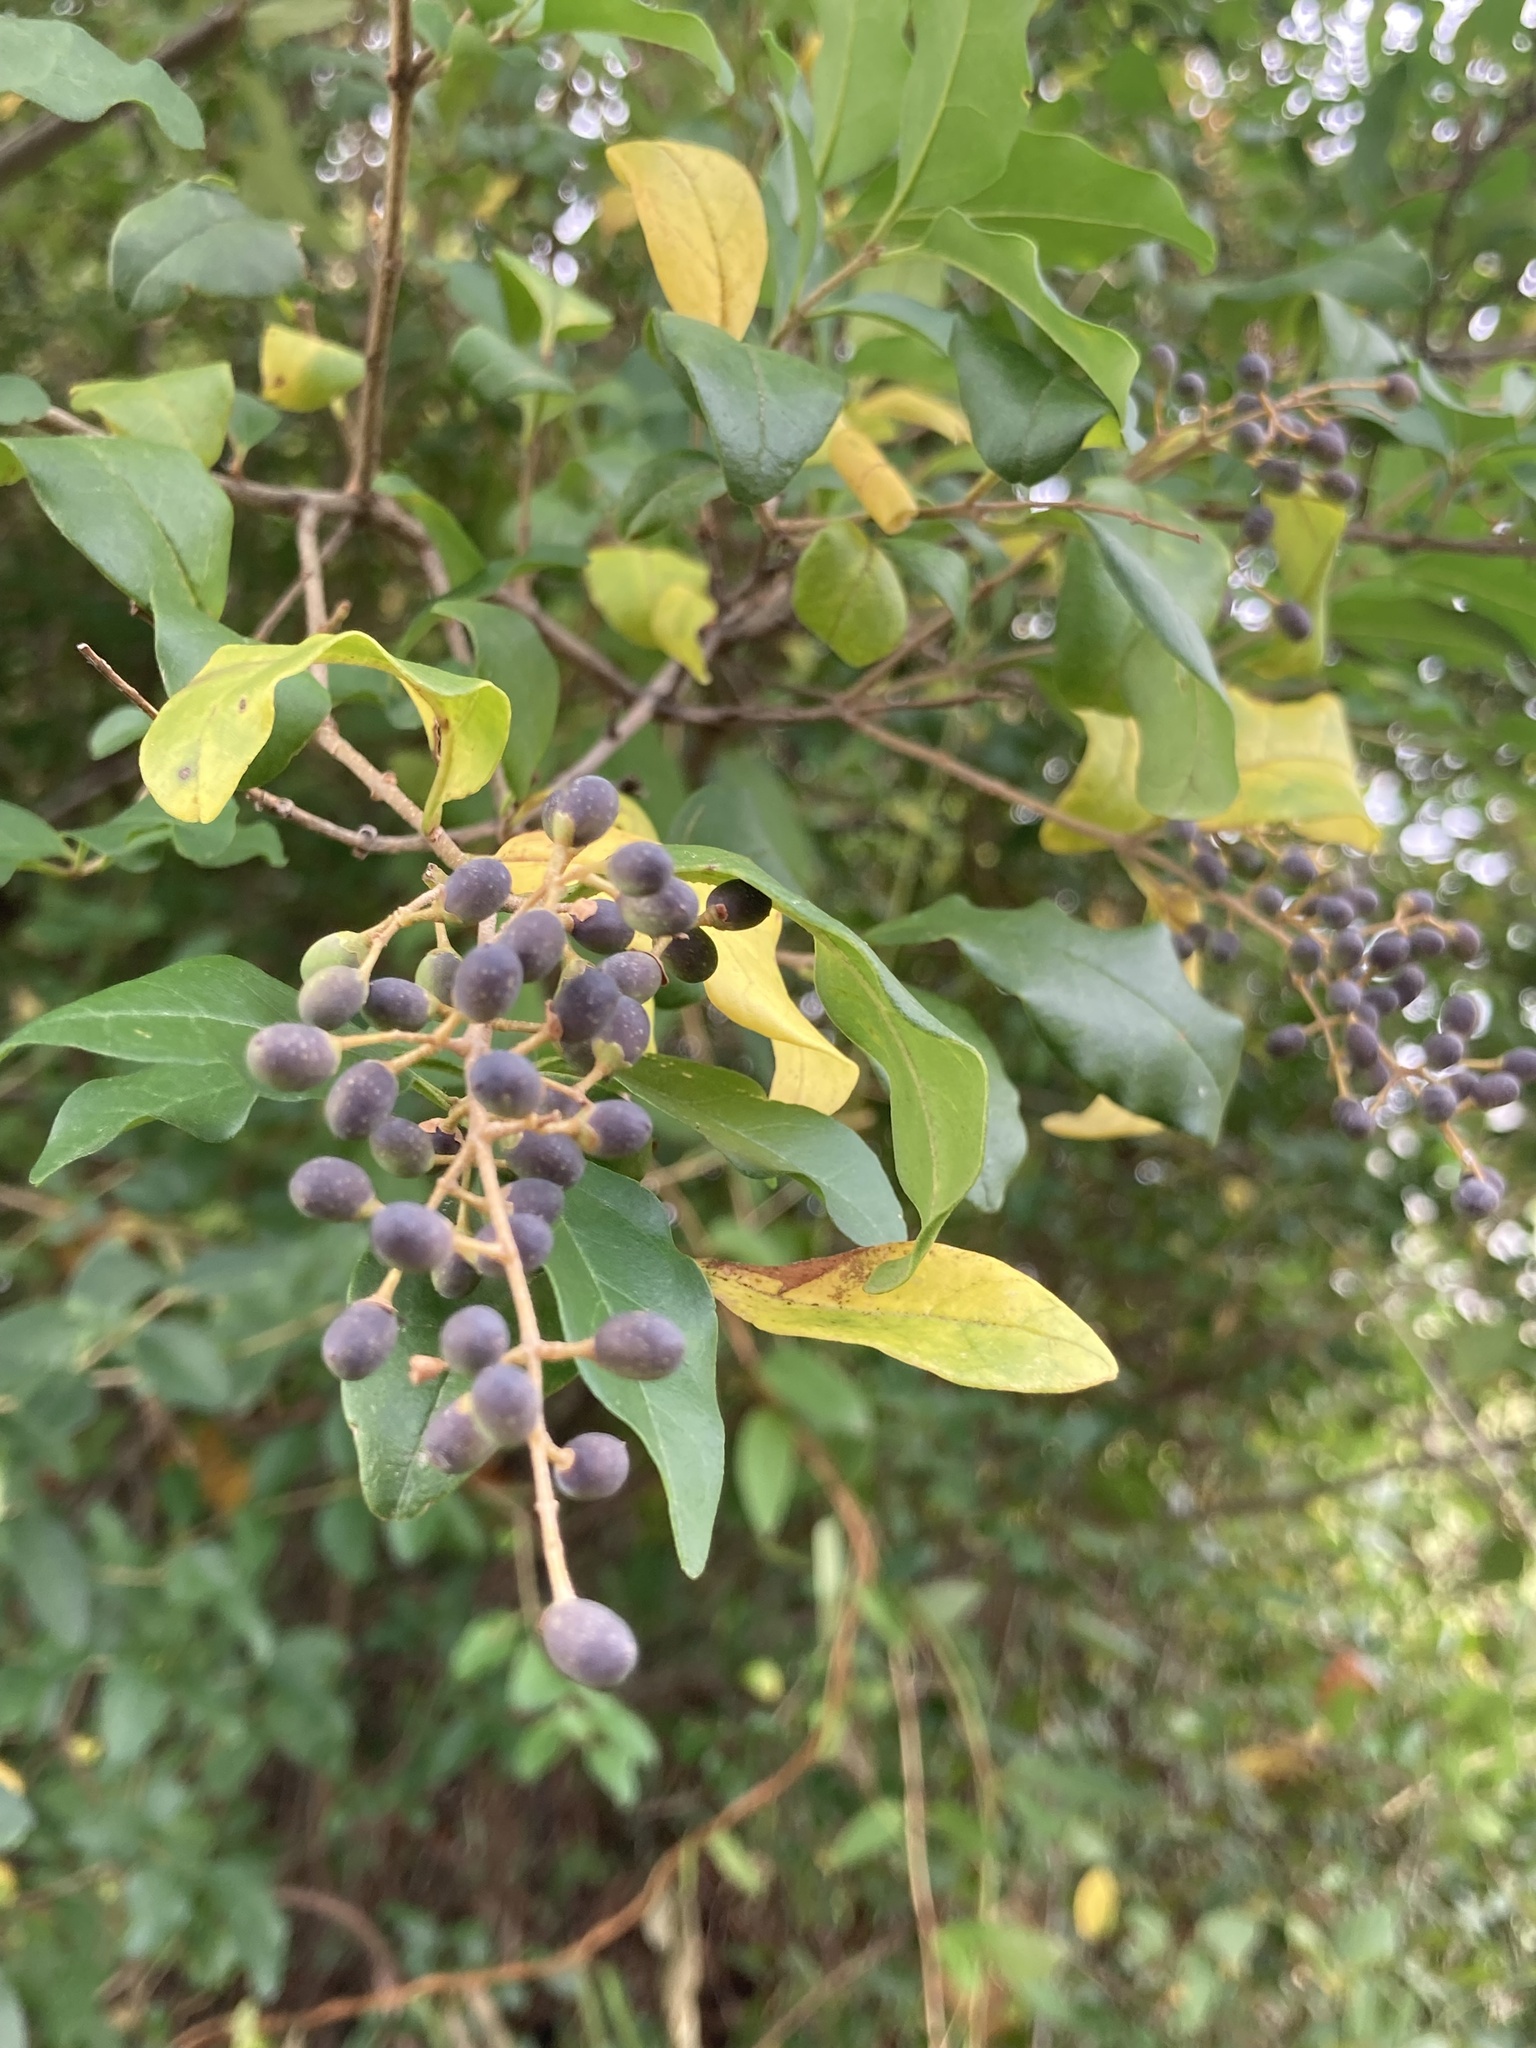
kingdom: Plantae
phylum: Tracheophyta
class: Magnoliopsida
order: Lamiales
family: Oleaceae
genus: Ligustrum
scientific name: Ligustrum sinense
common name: Chinese privet
